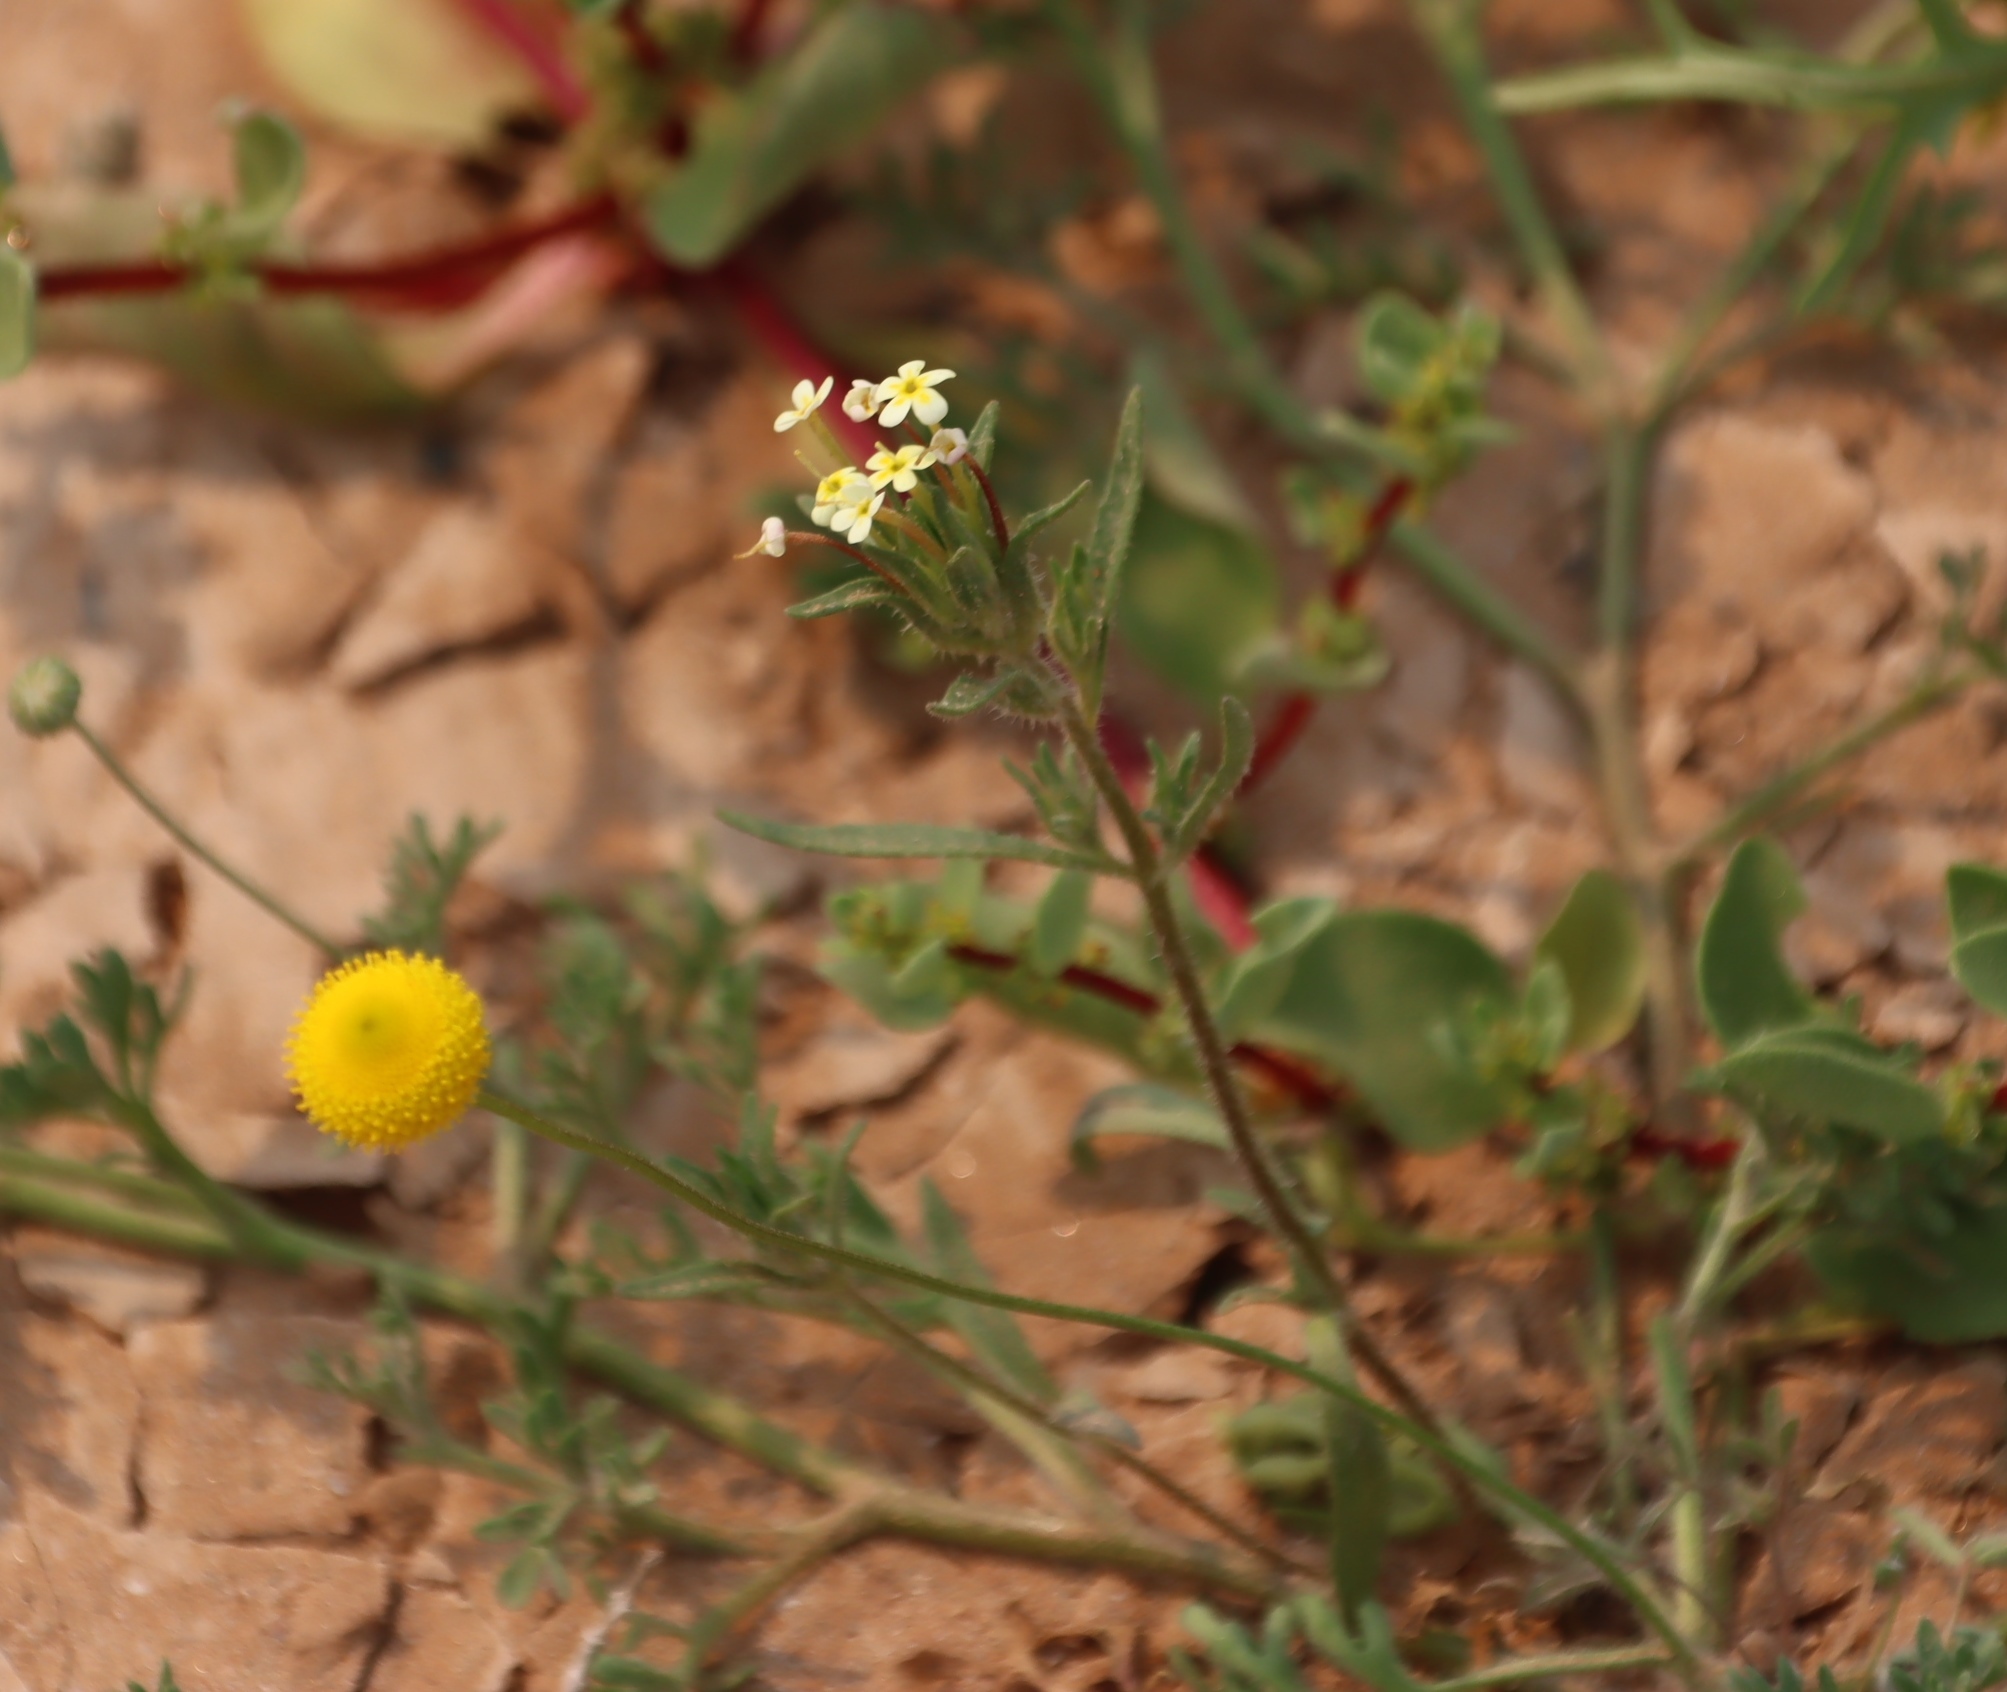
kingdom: Plantae
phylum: Tracheophyta
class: Magnoliopsida
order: Lamiales
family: Scrophulariaceae
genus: Zaluzianskya
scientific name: Zaluzianskya benthamiana
